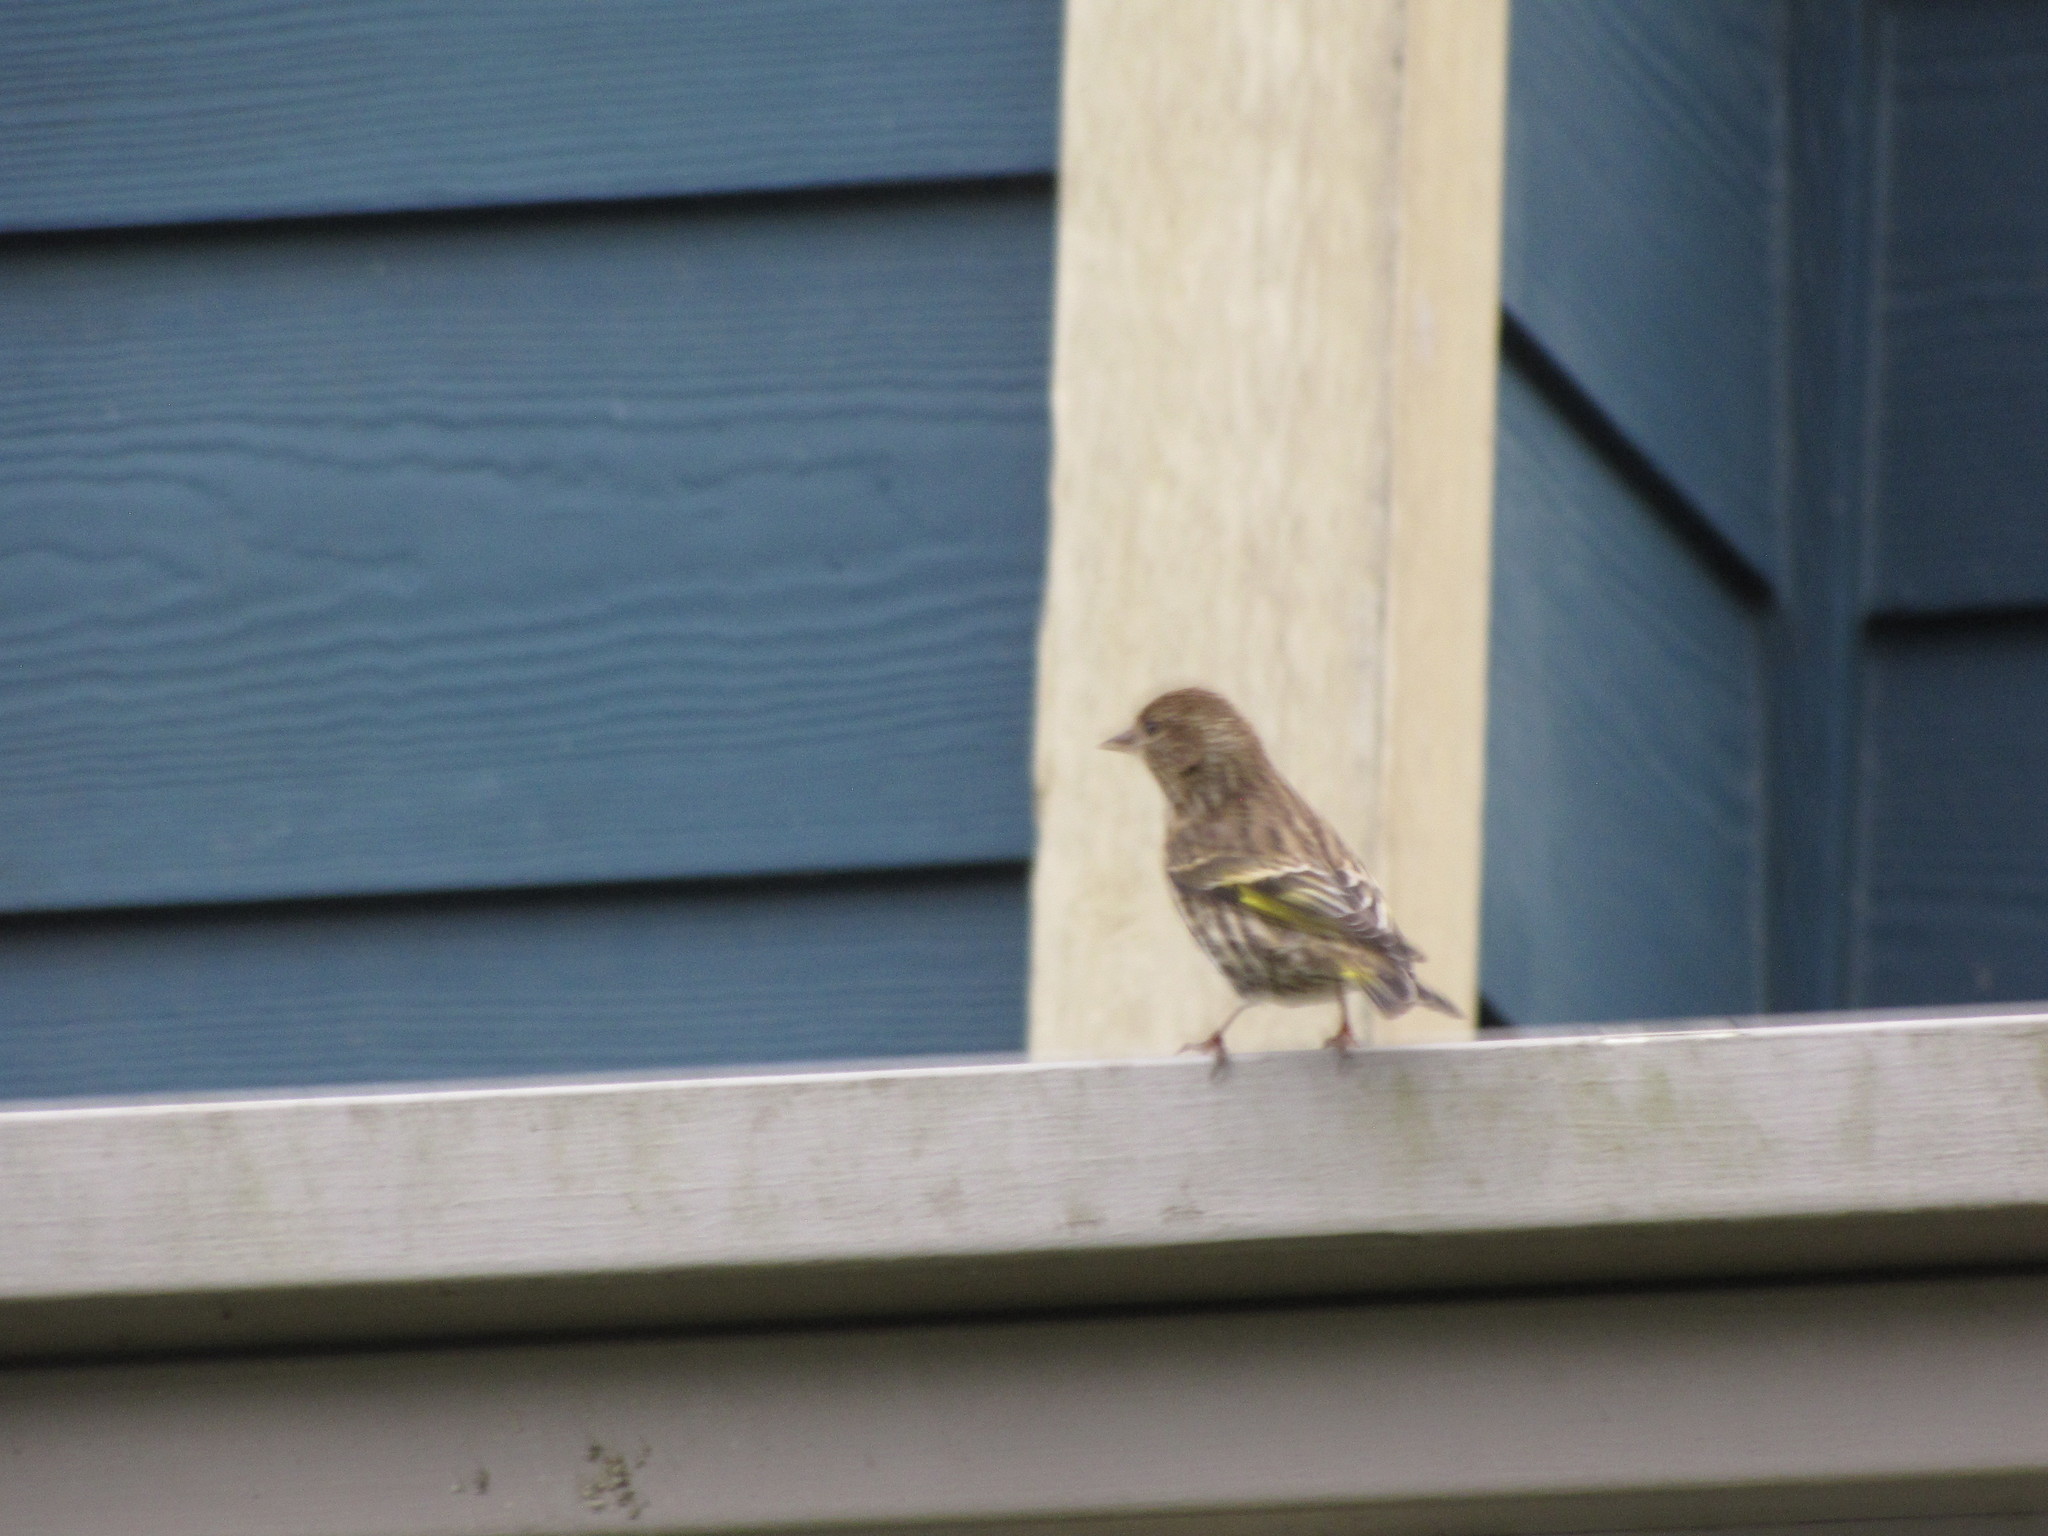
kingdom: Animalia
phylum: Chordata
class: Aves
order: Passeriformes
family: Fringillidae
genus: Spinus
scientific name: Spinus pinus
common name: Pine siskin
